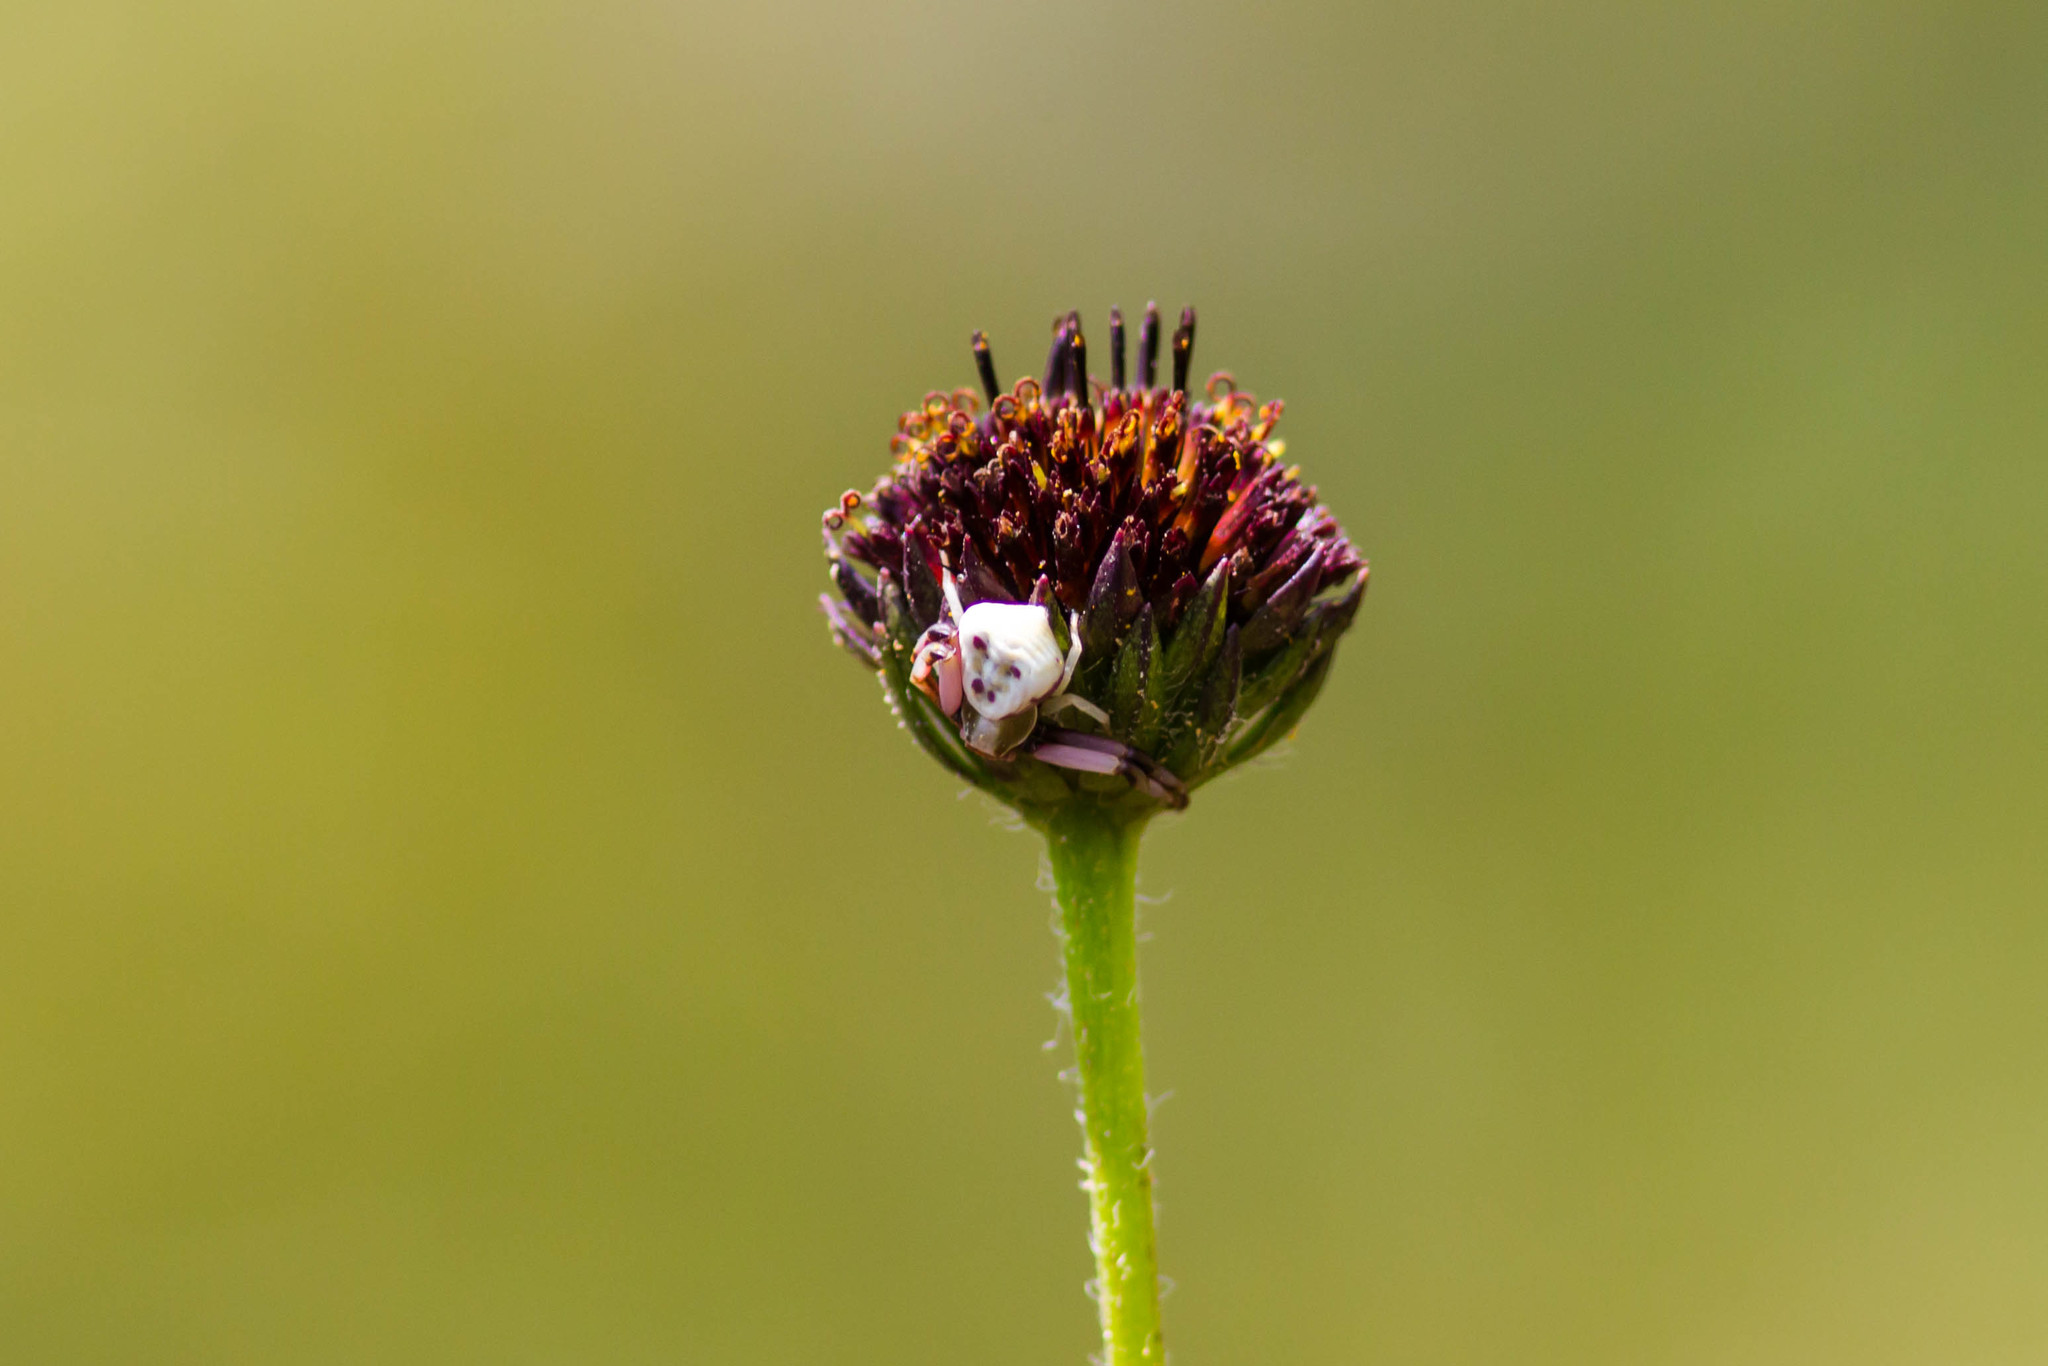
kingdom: Animalia
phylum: Arthropoda
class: Arachnida
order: Araneae
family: Thomisidae
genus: Misumenoides
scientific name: Misumenoides formosipes
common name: White-banded crab spider
